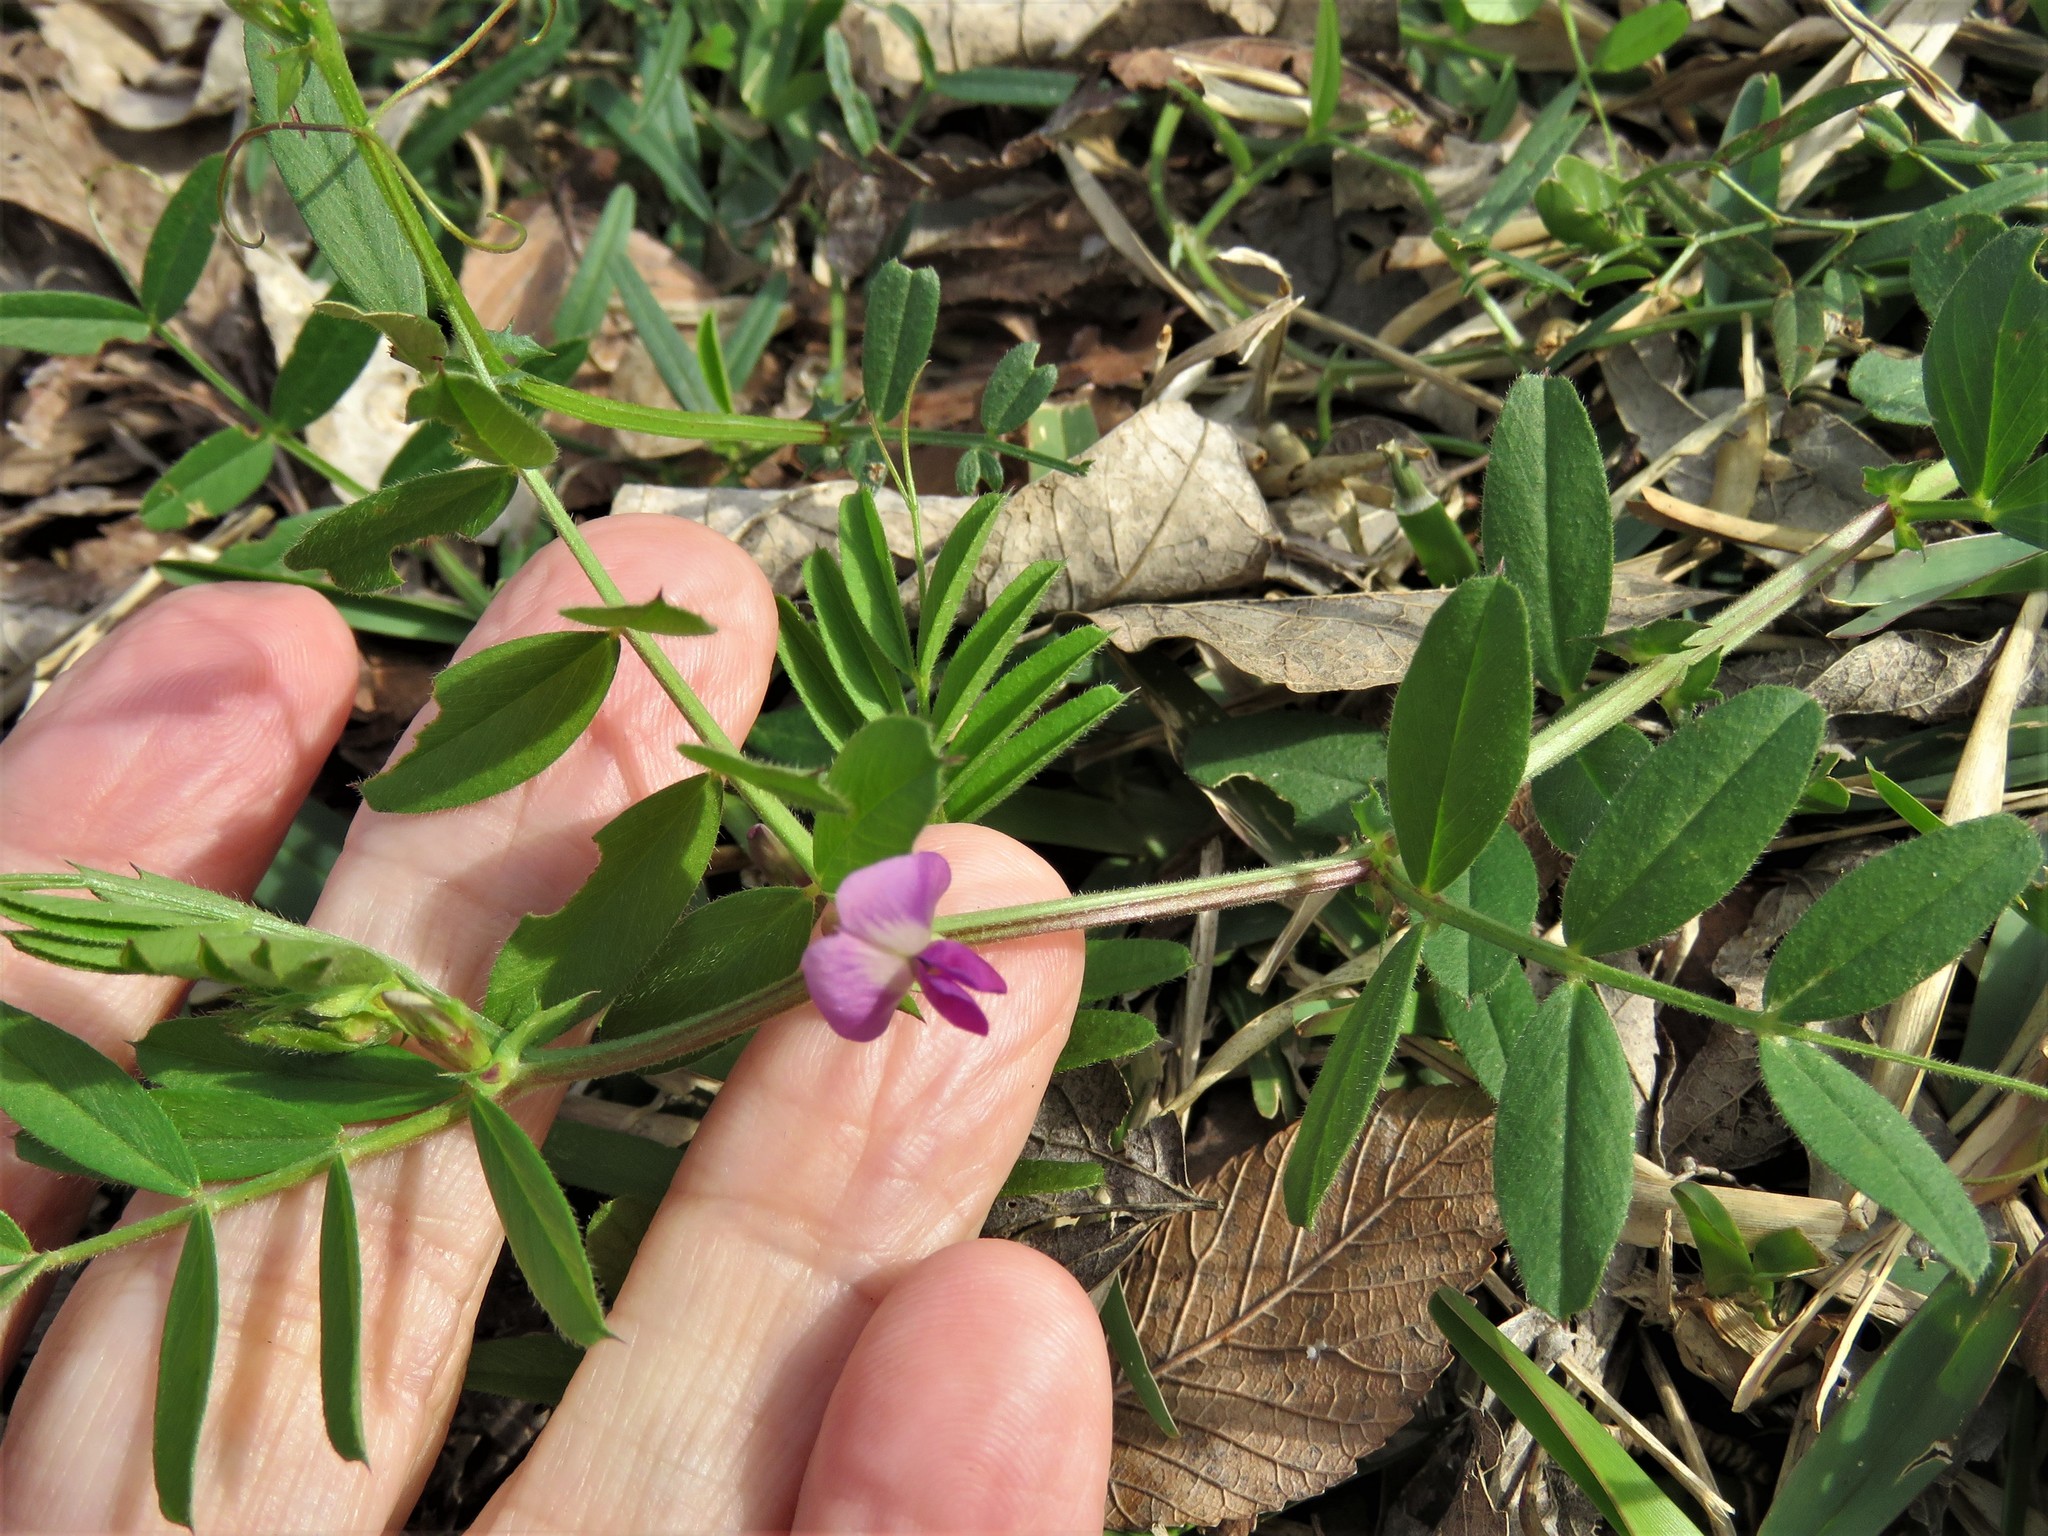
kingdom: Plantae
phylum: Tracheophyta
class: Magnoliopsida
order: Fabales
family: Fabaceae
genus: Vicia
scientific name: Vicia sativa
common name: Garden vetch
